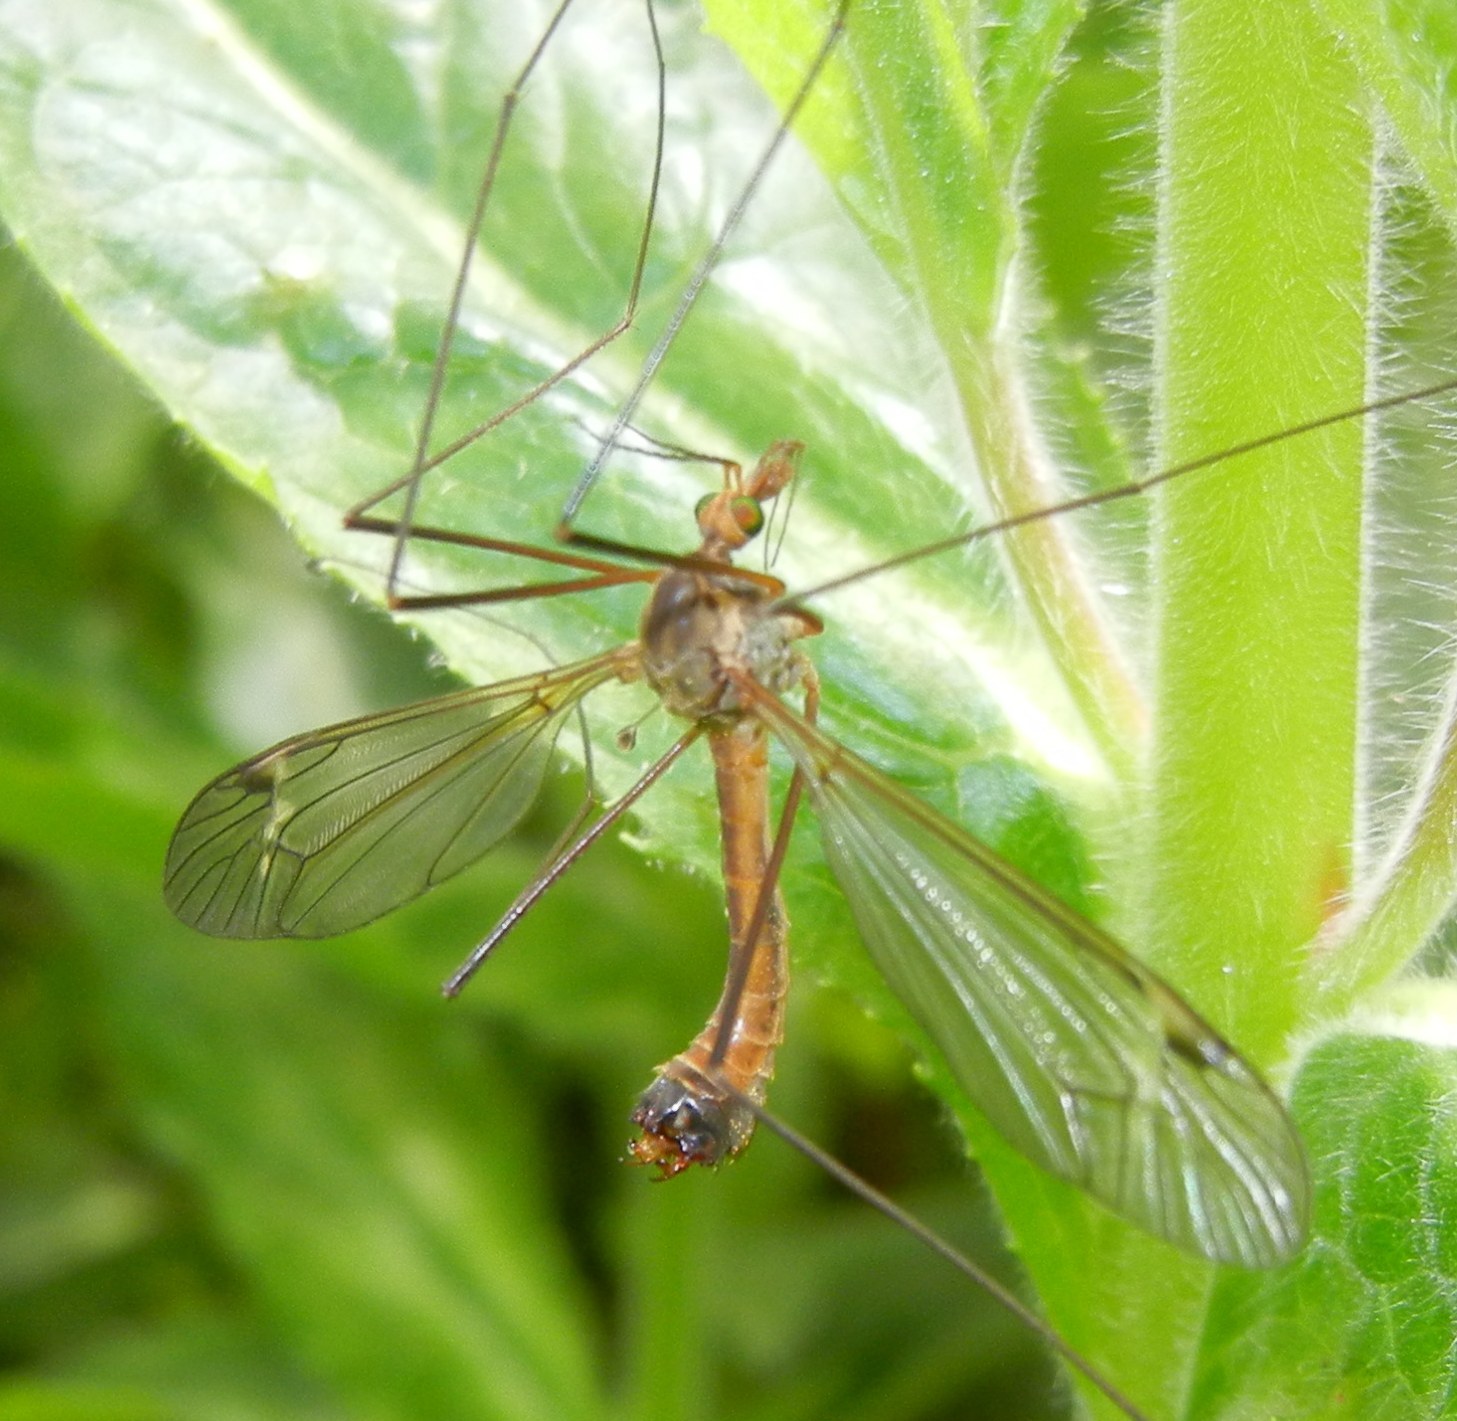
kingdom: Animalia
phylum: Arthropoda
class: Insecta
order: Diptera
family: Tipulidae
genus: Tipula
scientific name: Tipula fascipennis
